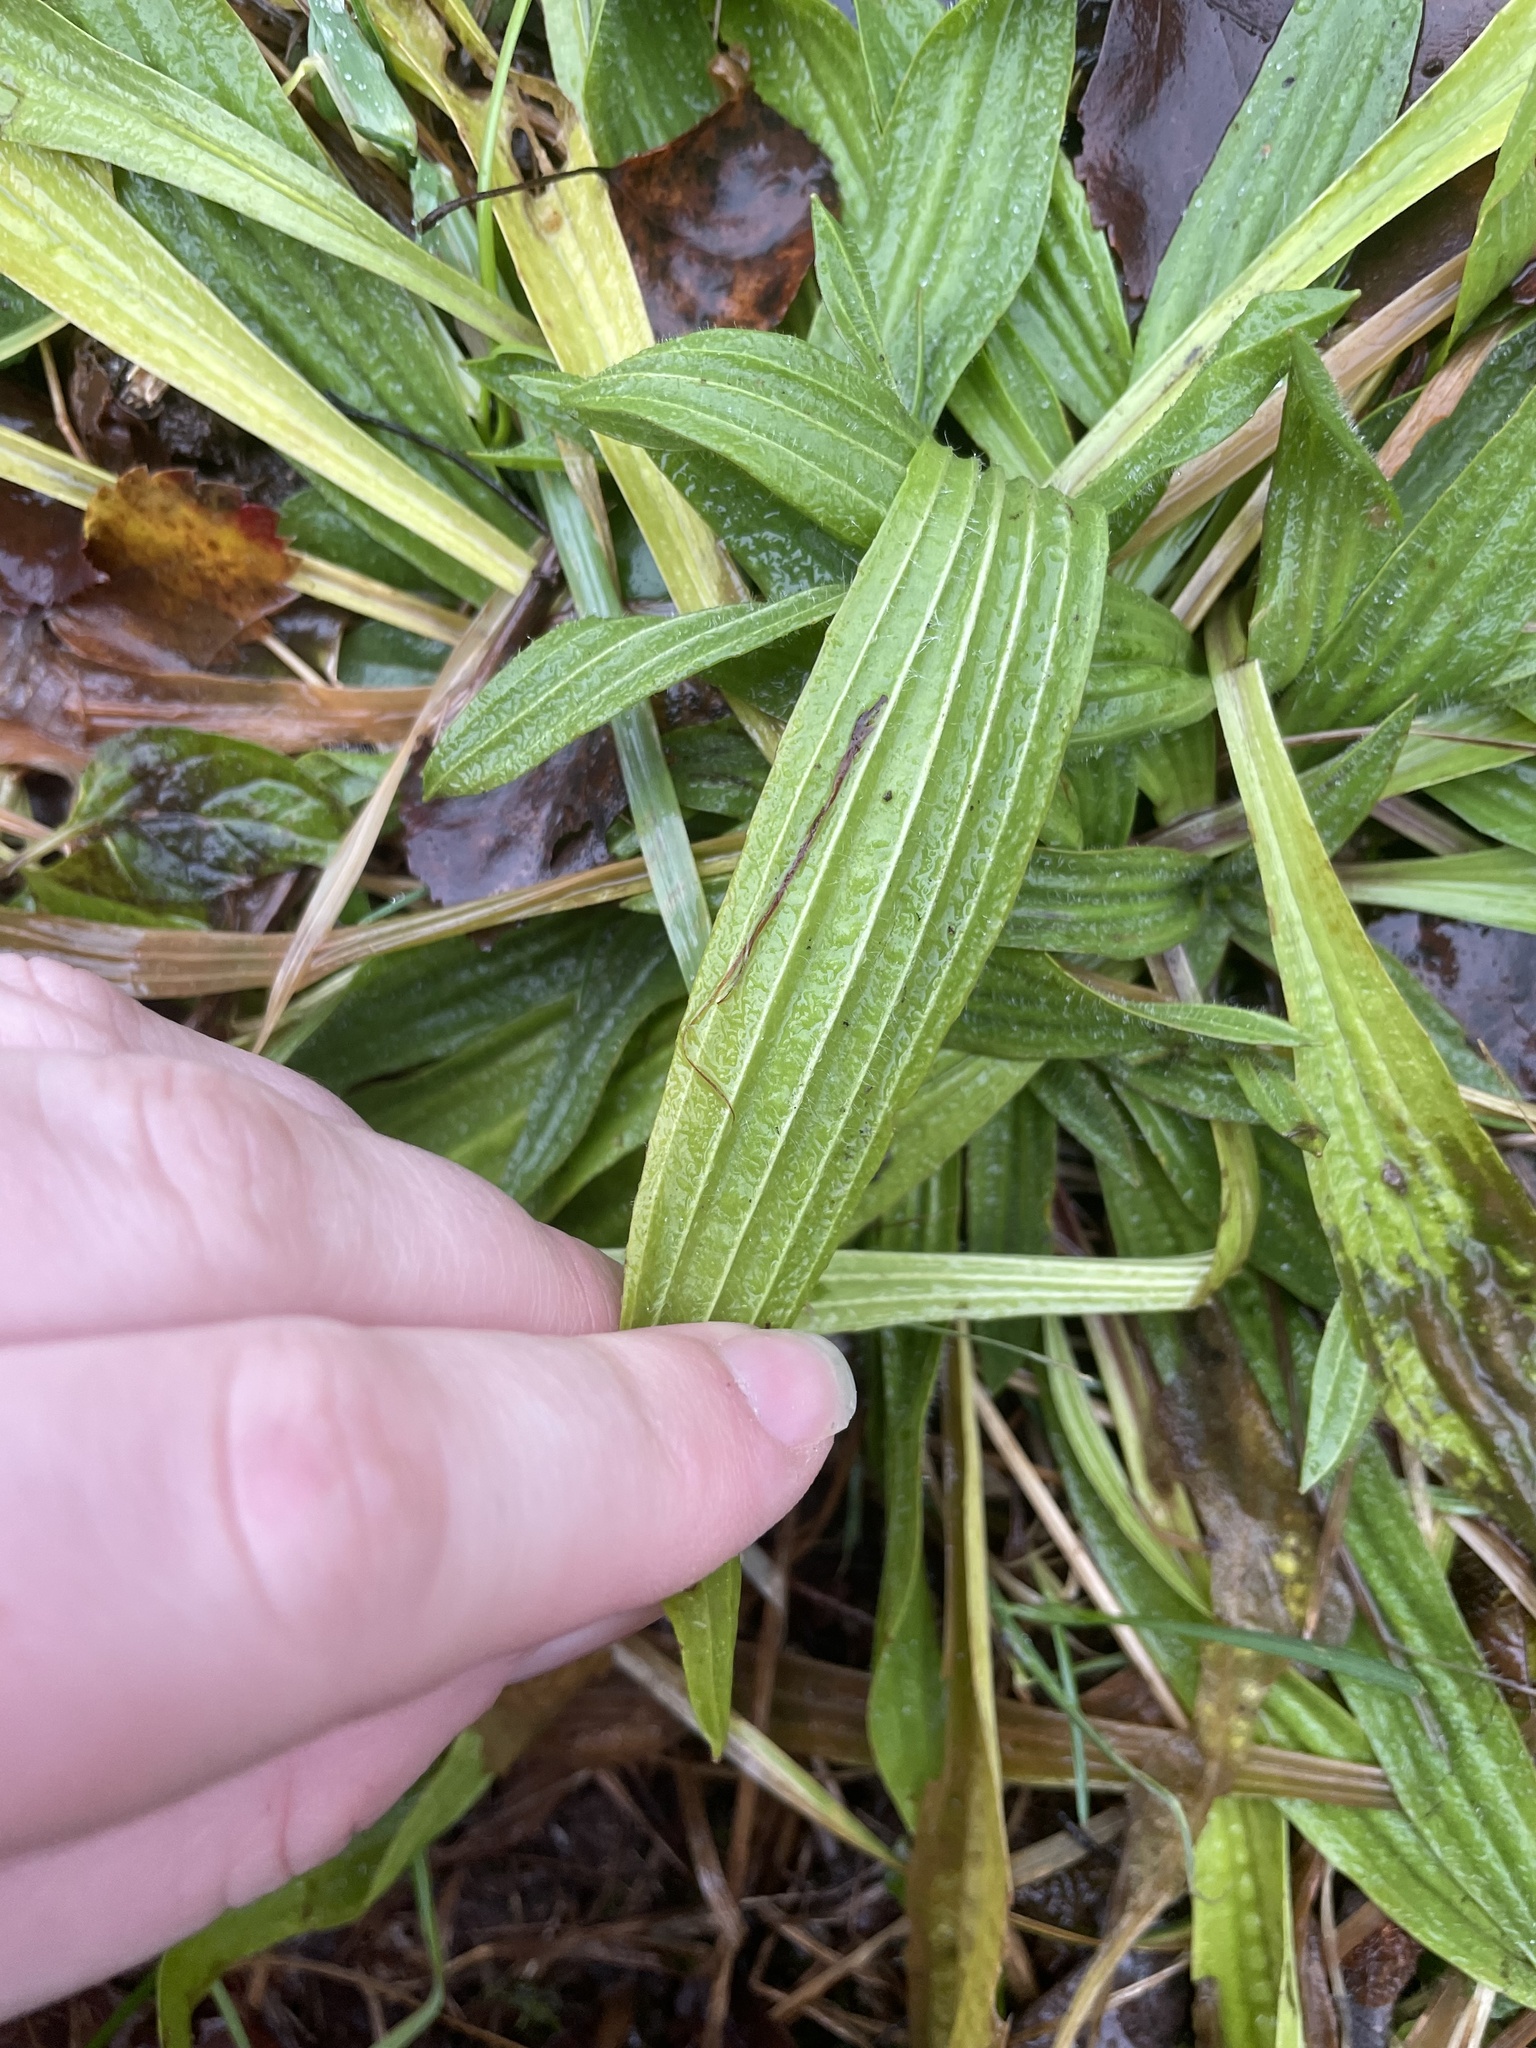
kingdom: Plantae
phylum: Tracheophyta
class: Magnoliopsida
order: Lamiales
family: Plantaginaceae
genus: Plantago
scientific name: Plantago lanceolata
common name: Ribwort plantain
